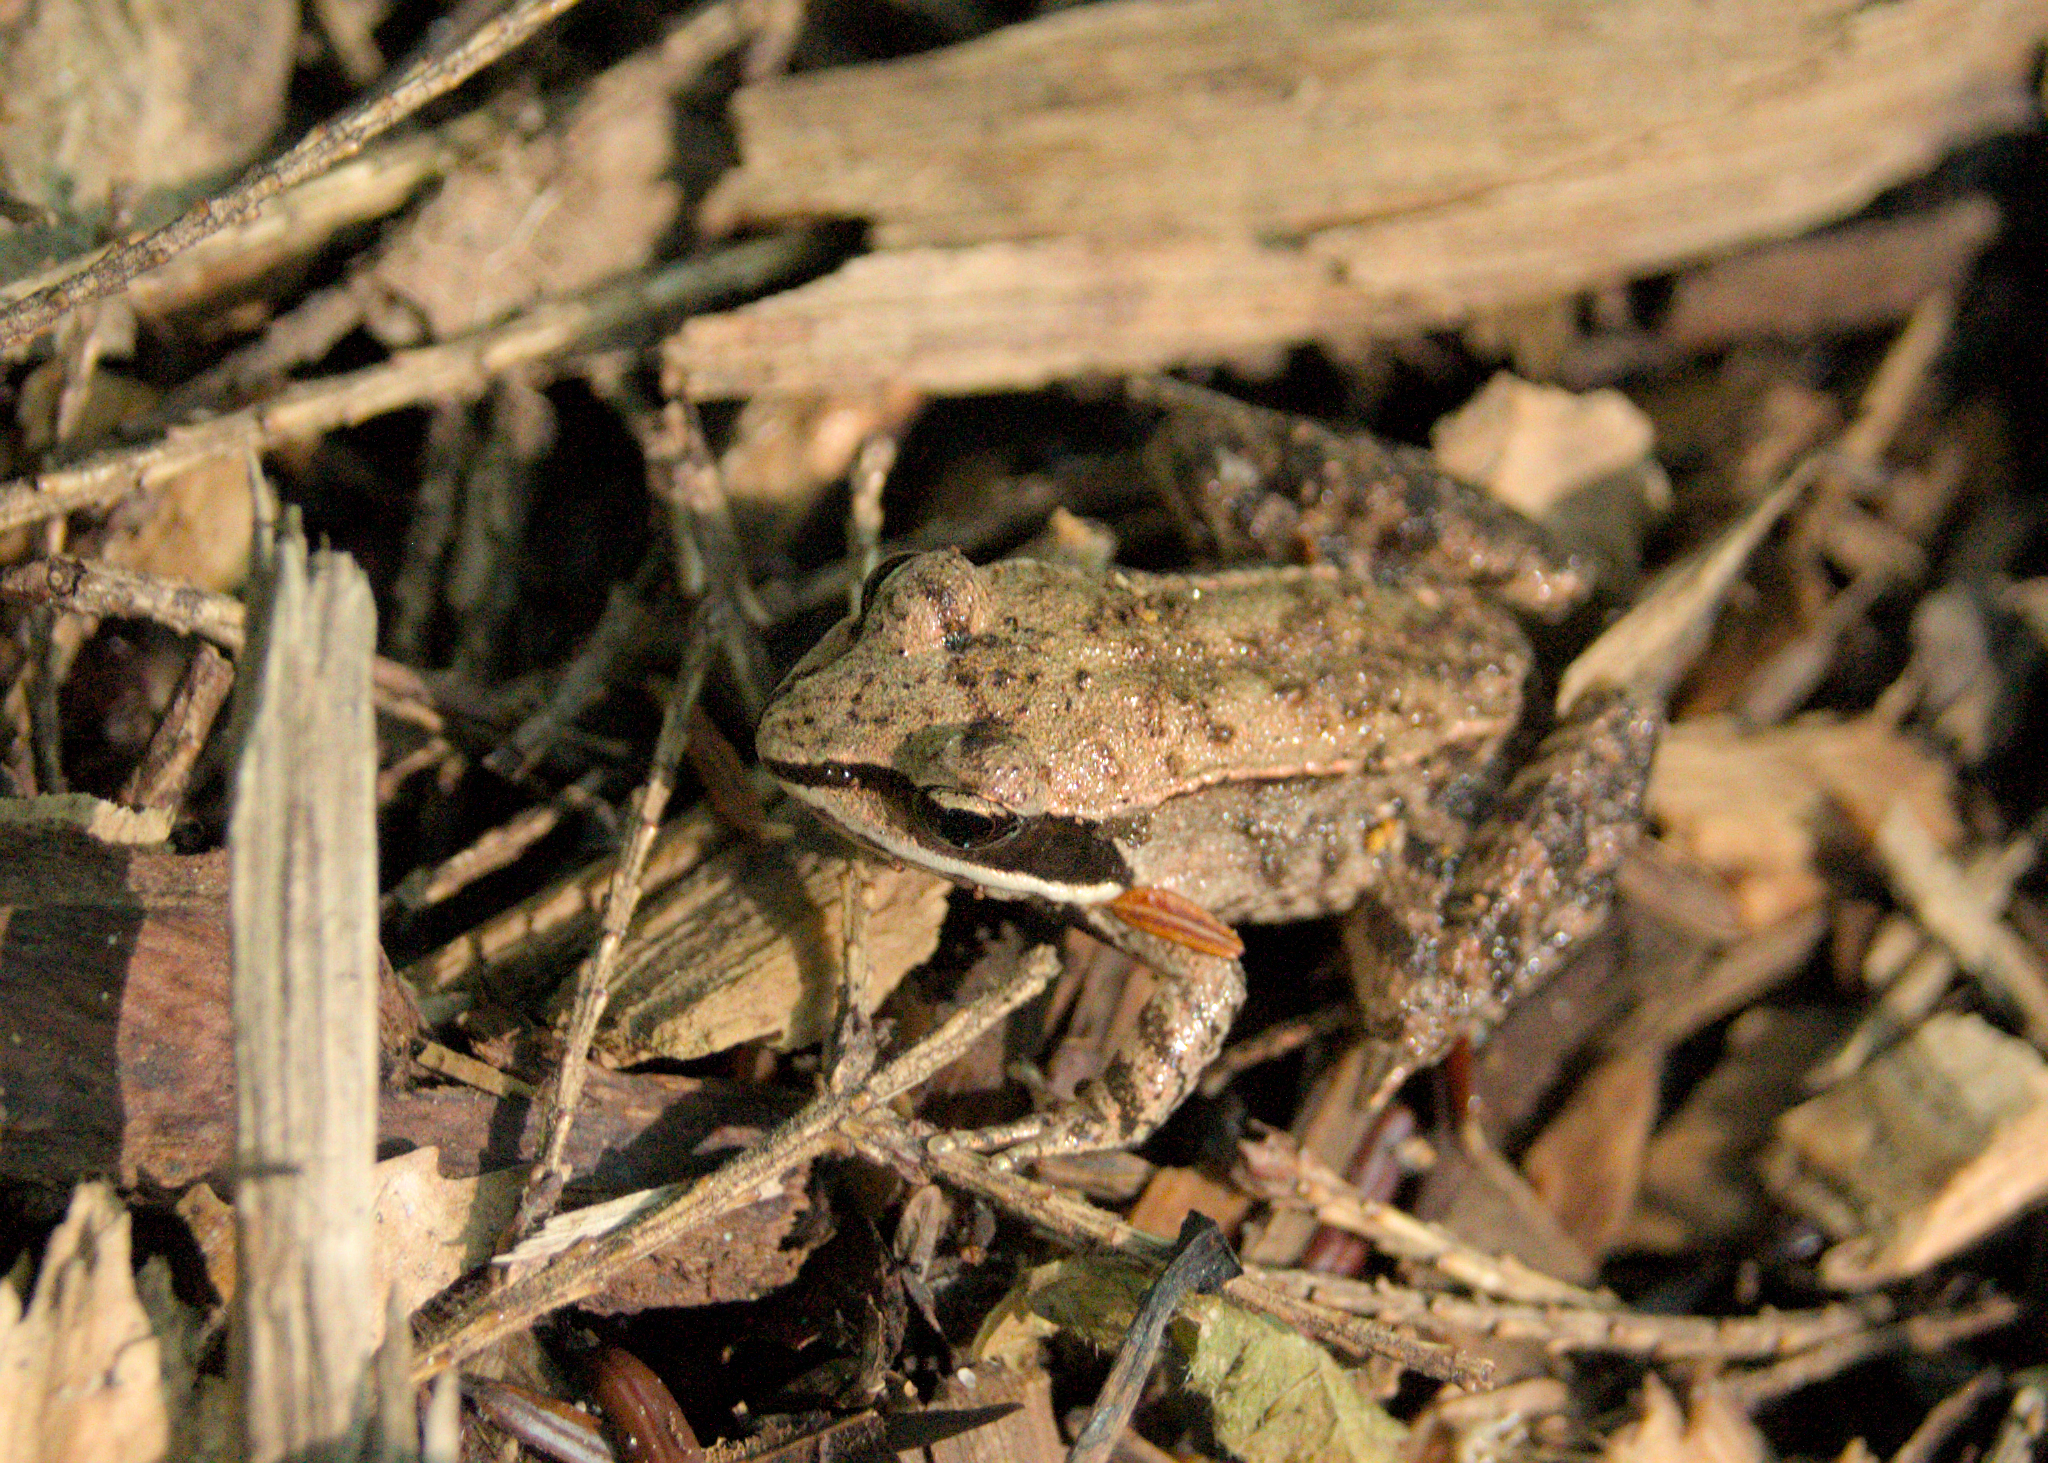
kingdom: Animalia
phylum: Chordata
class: Amphibia
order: Anura
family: Ranidae
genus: Lithobates
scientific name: Lithobates sylvaticus
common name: Wood frog
